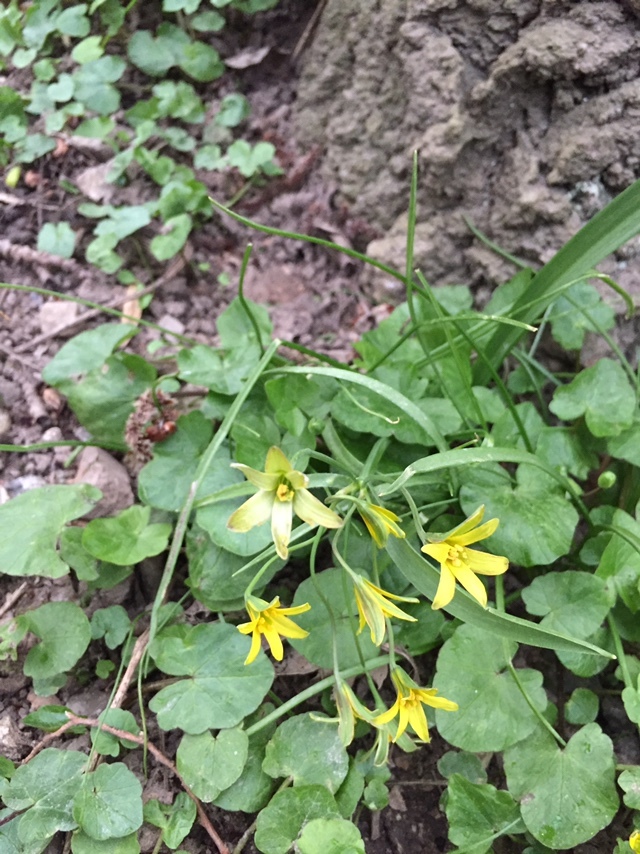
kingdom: Plantae
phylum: Tracheophyta
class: Liliopsida
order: Liliales
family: Liliaceae
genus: Gagea
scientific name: Gagea lutea
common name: Yellow star-of-bethlehem
